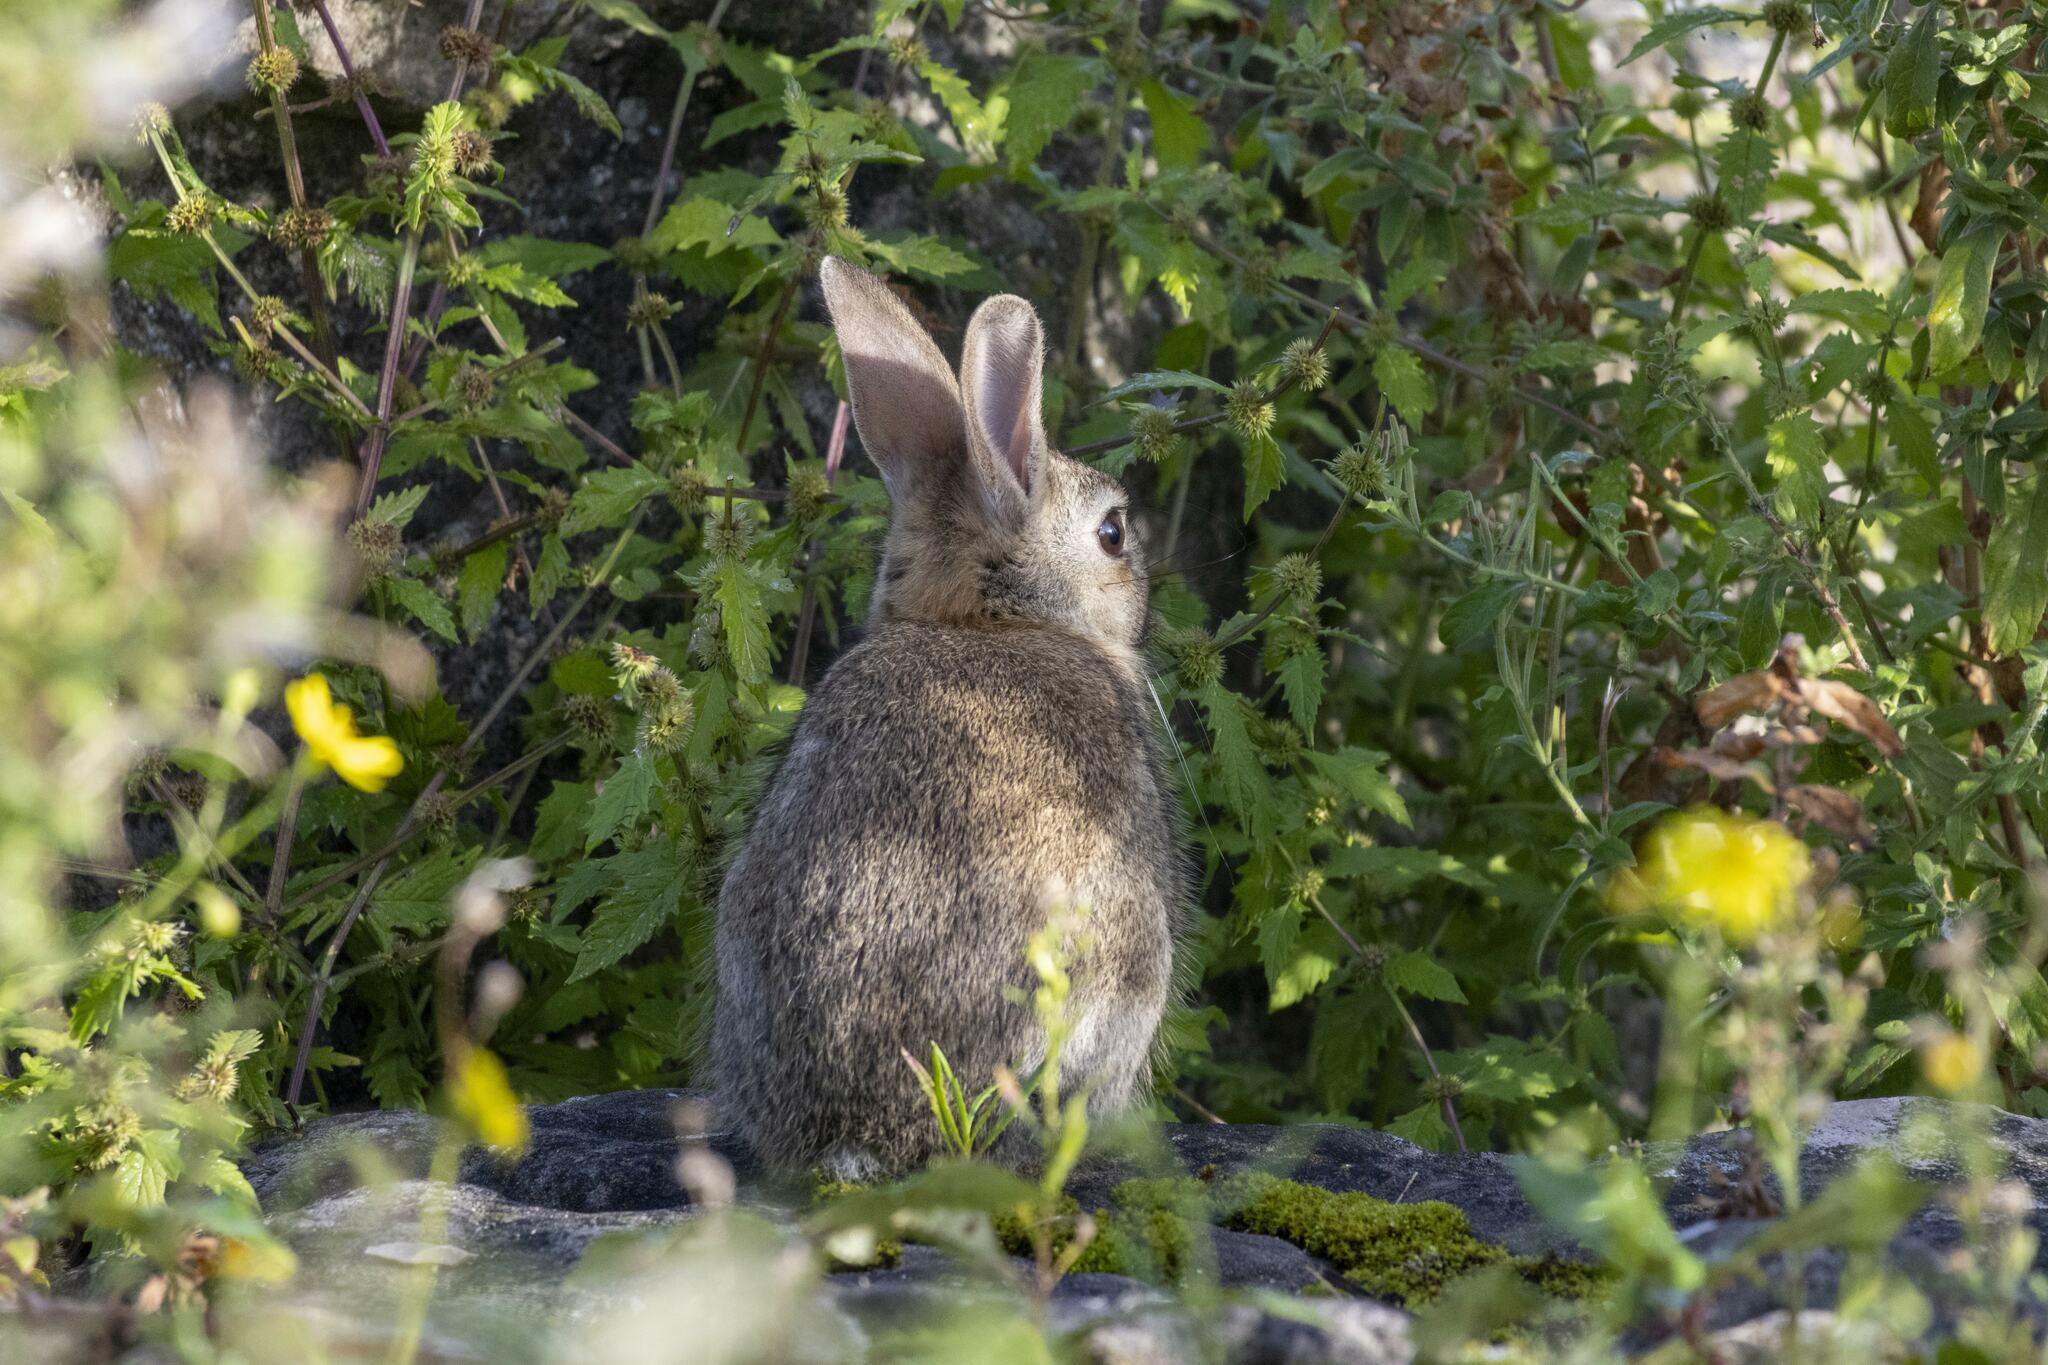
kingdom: Animalia
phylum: Chordata
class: Mammalia
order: Lagomorpha
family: Leporidae
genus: Oryctolagus
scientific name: Oryctolagus cuniculus
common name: European rabbit
